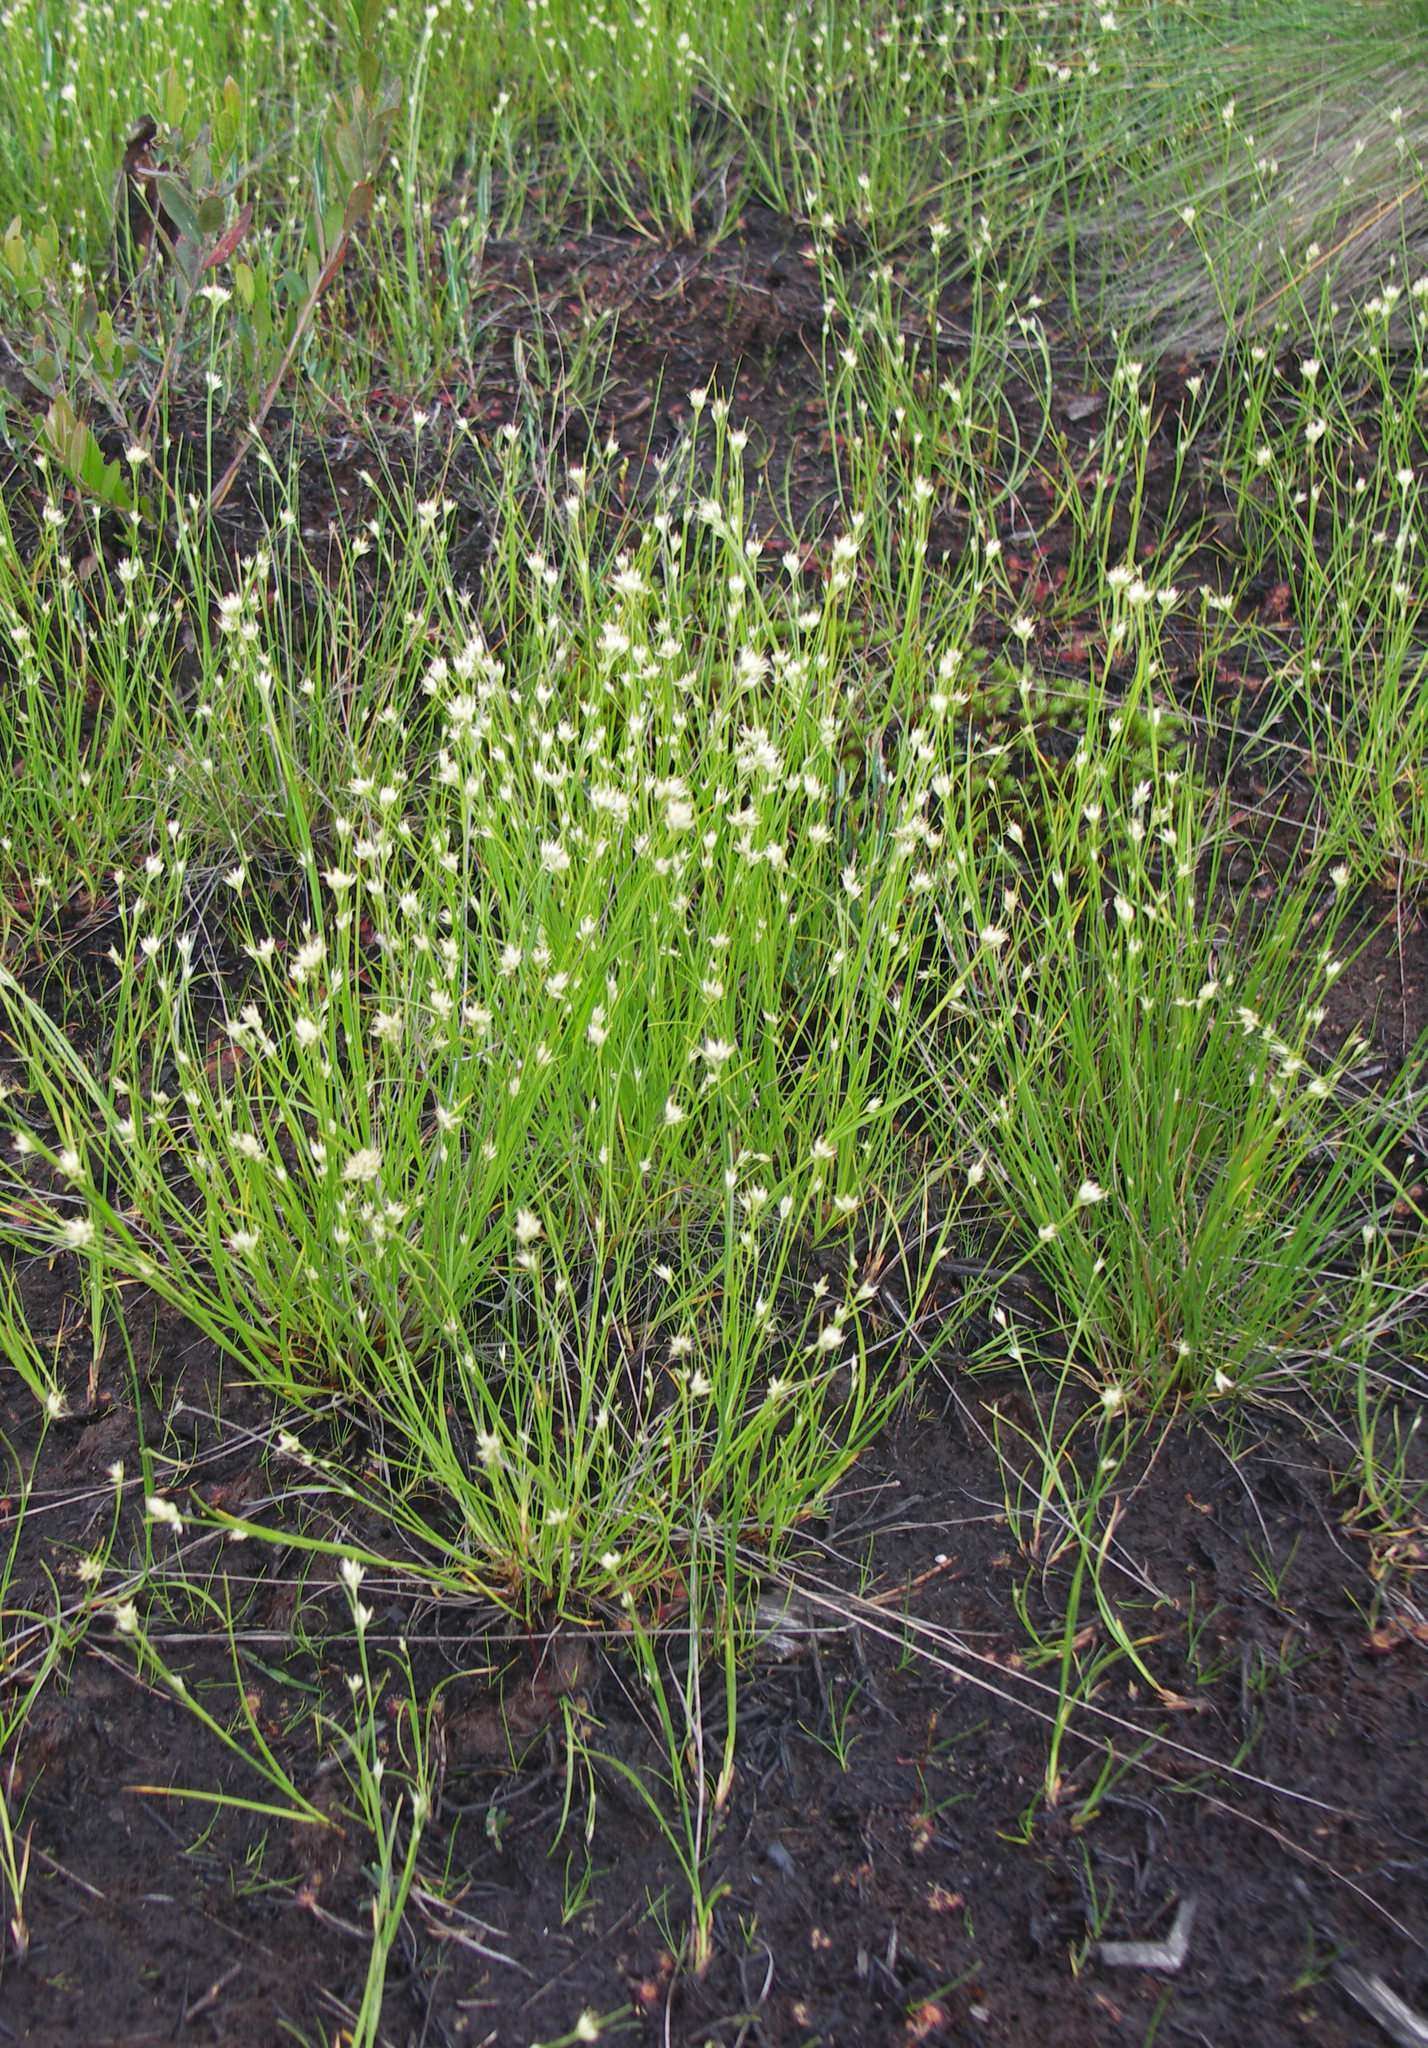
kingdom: Plantae
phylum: Tracheophyta
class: Liliopsida
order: Poales
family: Cyperaceae
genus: Rhynchospora
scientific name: Rhynchospora alba
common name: White beak-sedge
